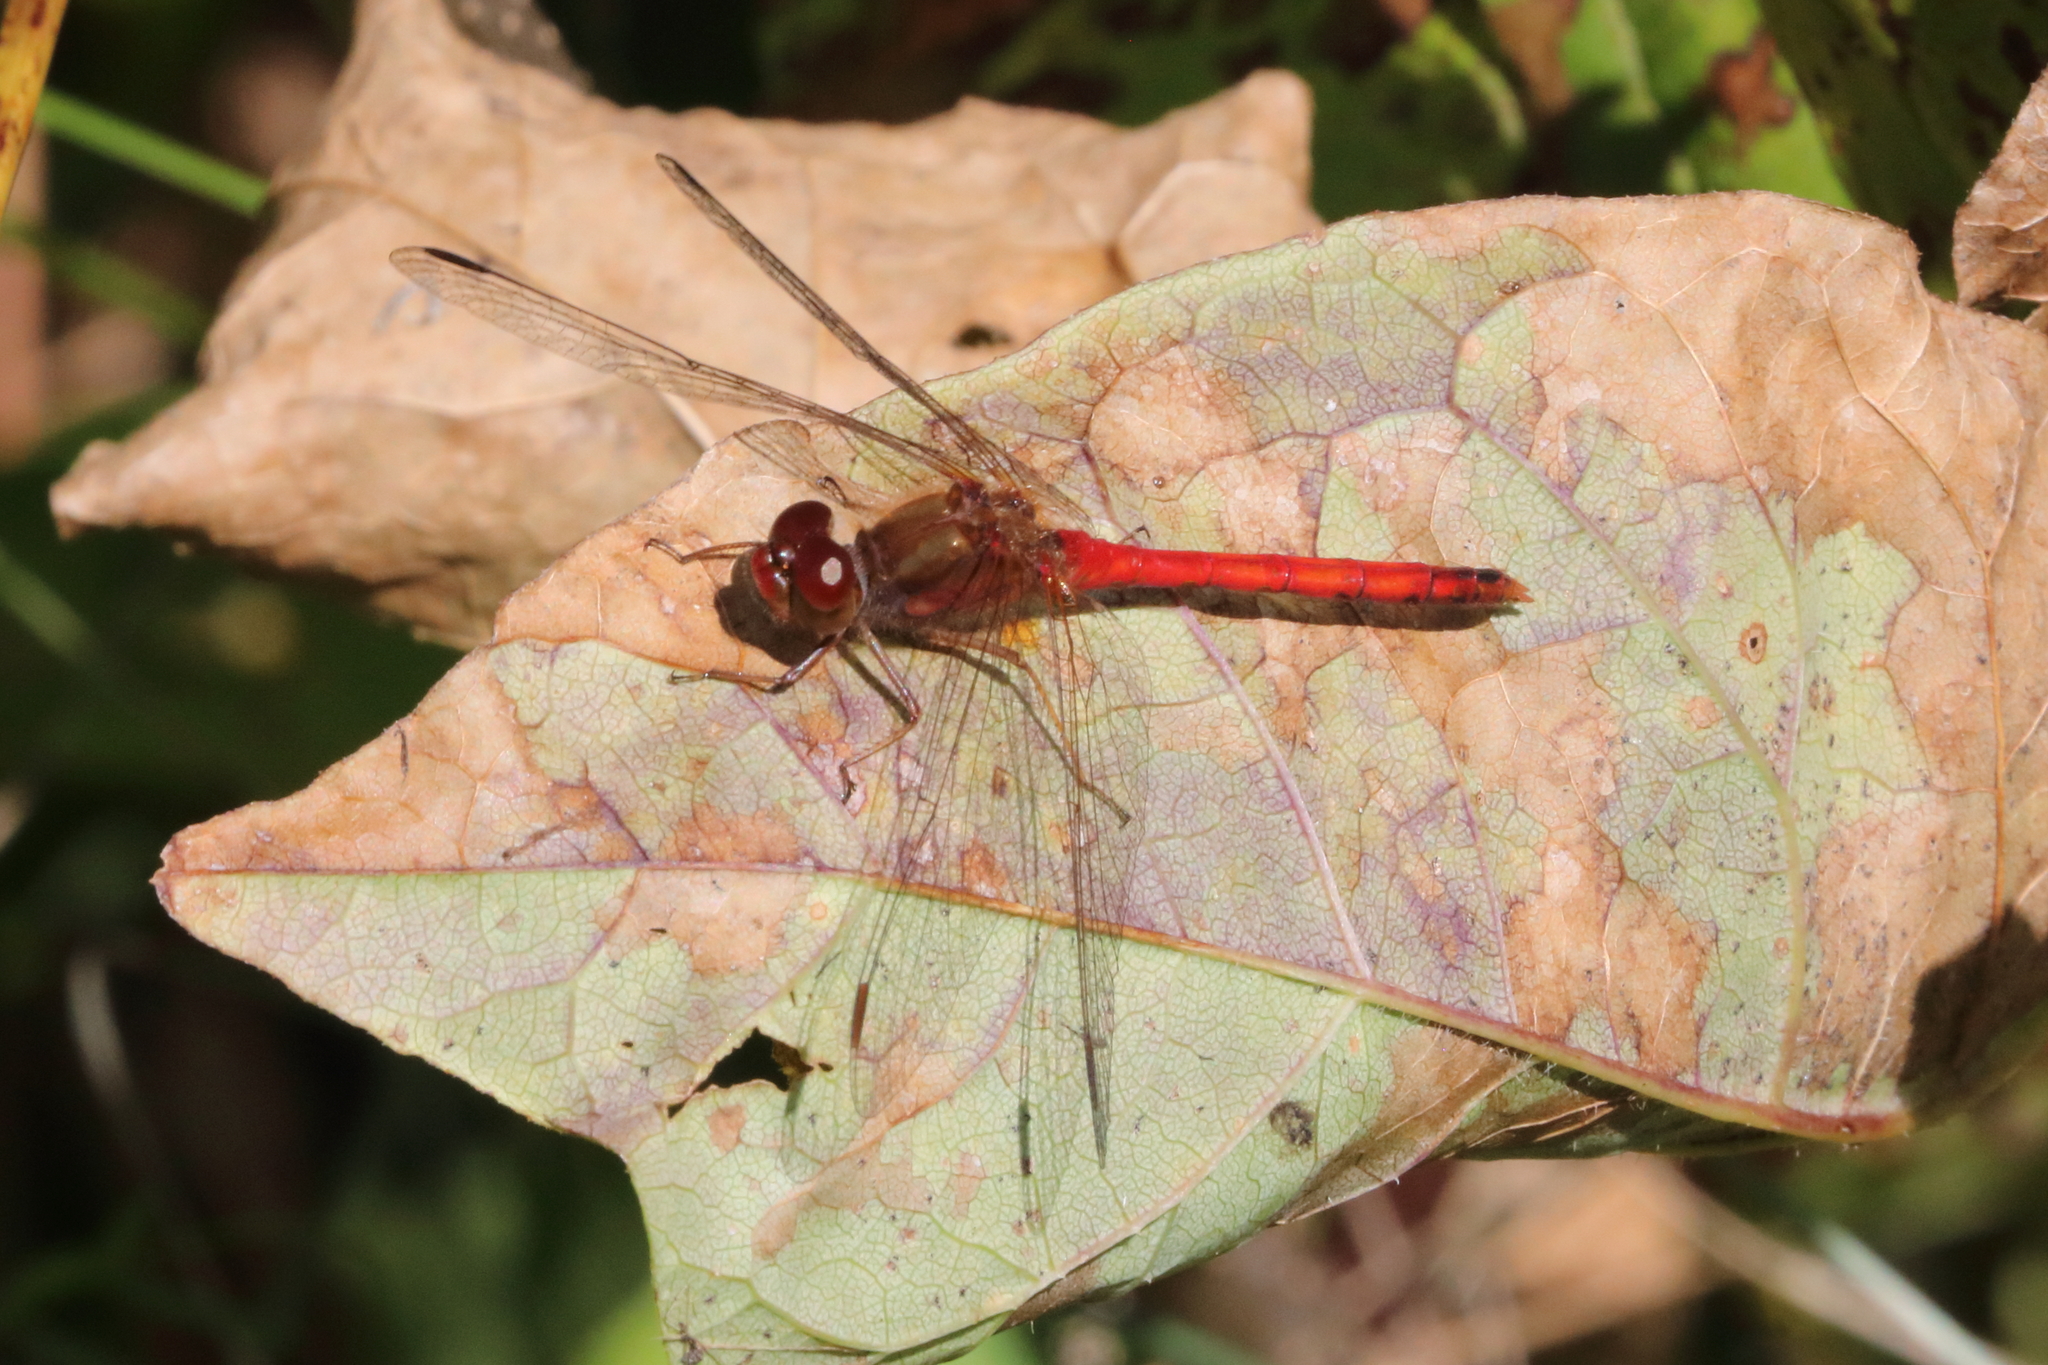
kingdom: Animalia
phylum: Arthropoda
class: Insecta
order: Odonata
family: Libellulidae
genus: Sympetrum
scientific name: Sympetrum vicinum
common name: Autumn meadowhawk
